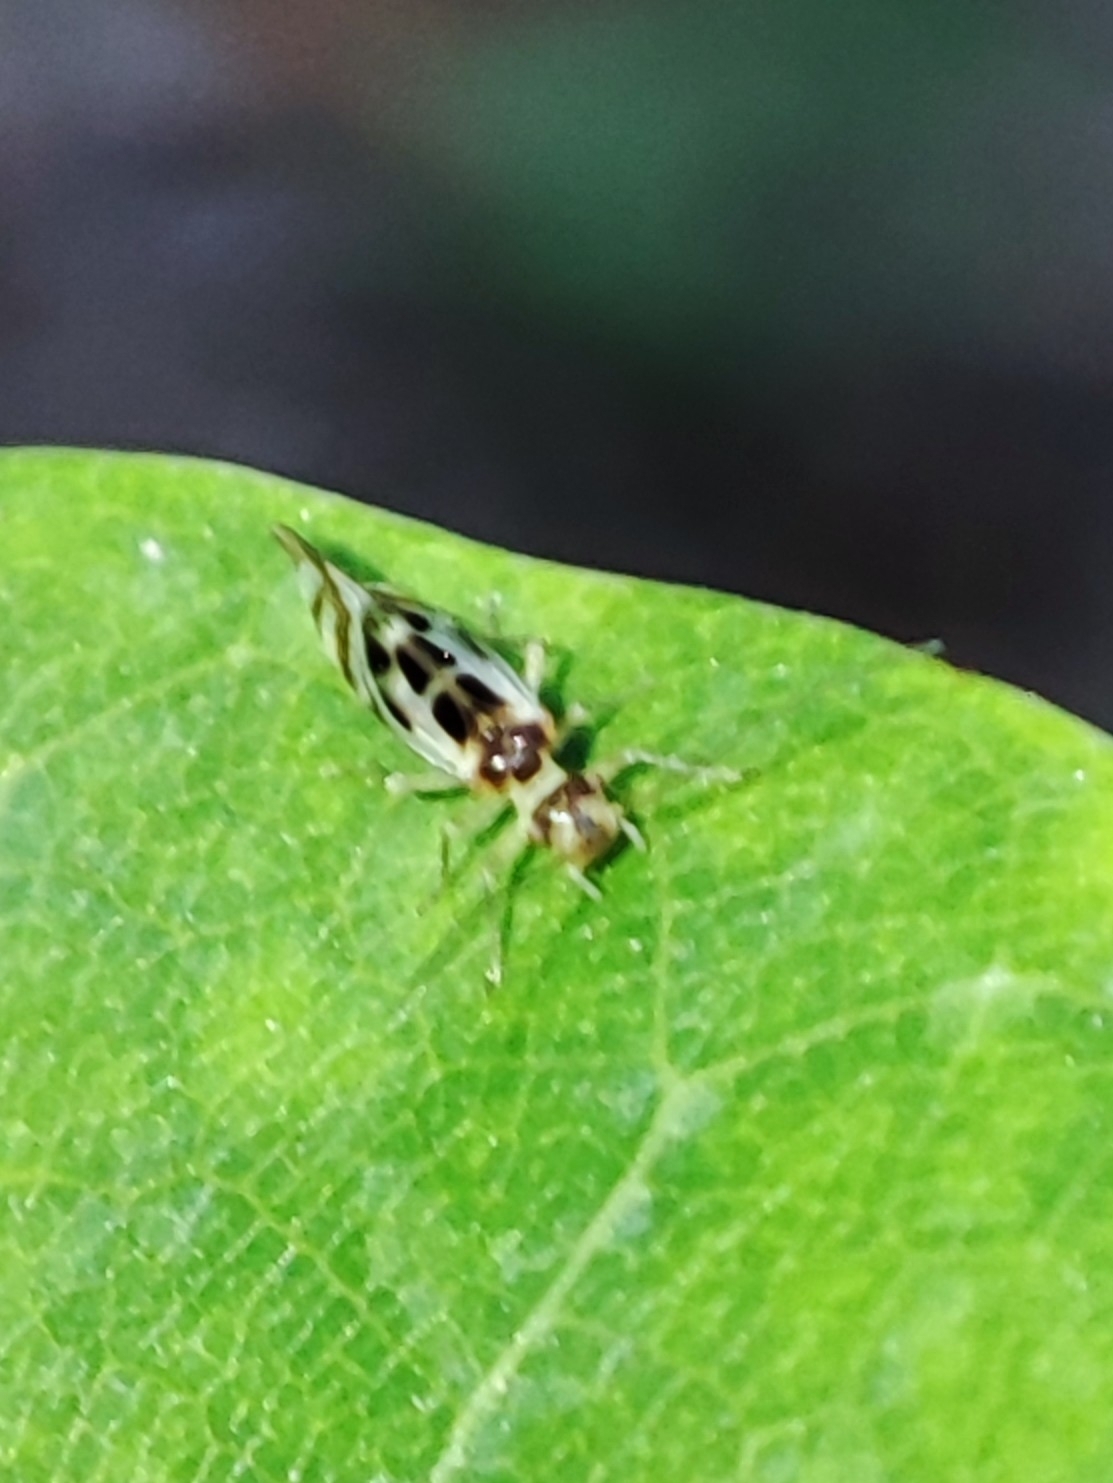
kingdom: Animalia
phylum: Arthropoda
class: Insecta
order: Psocodea
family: Stenopsocidae
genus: Graphopsocus
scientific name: Graphopsocus cruciatus
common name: Lizard bark louse
